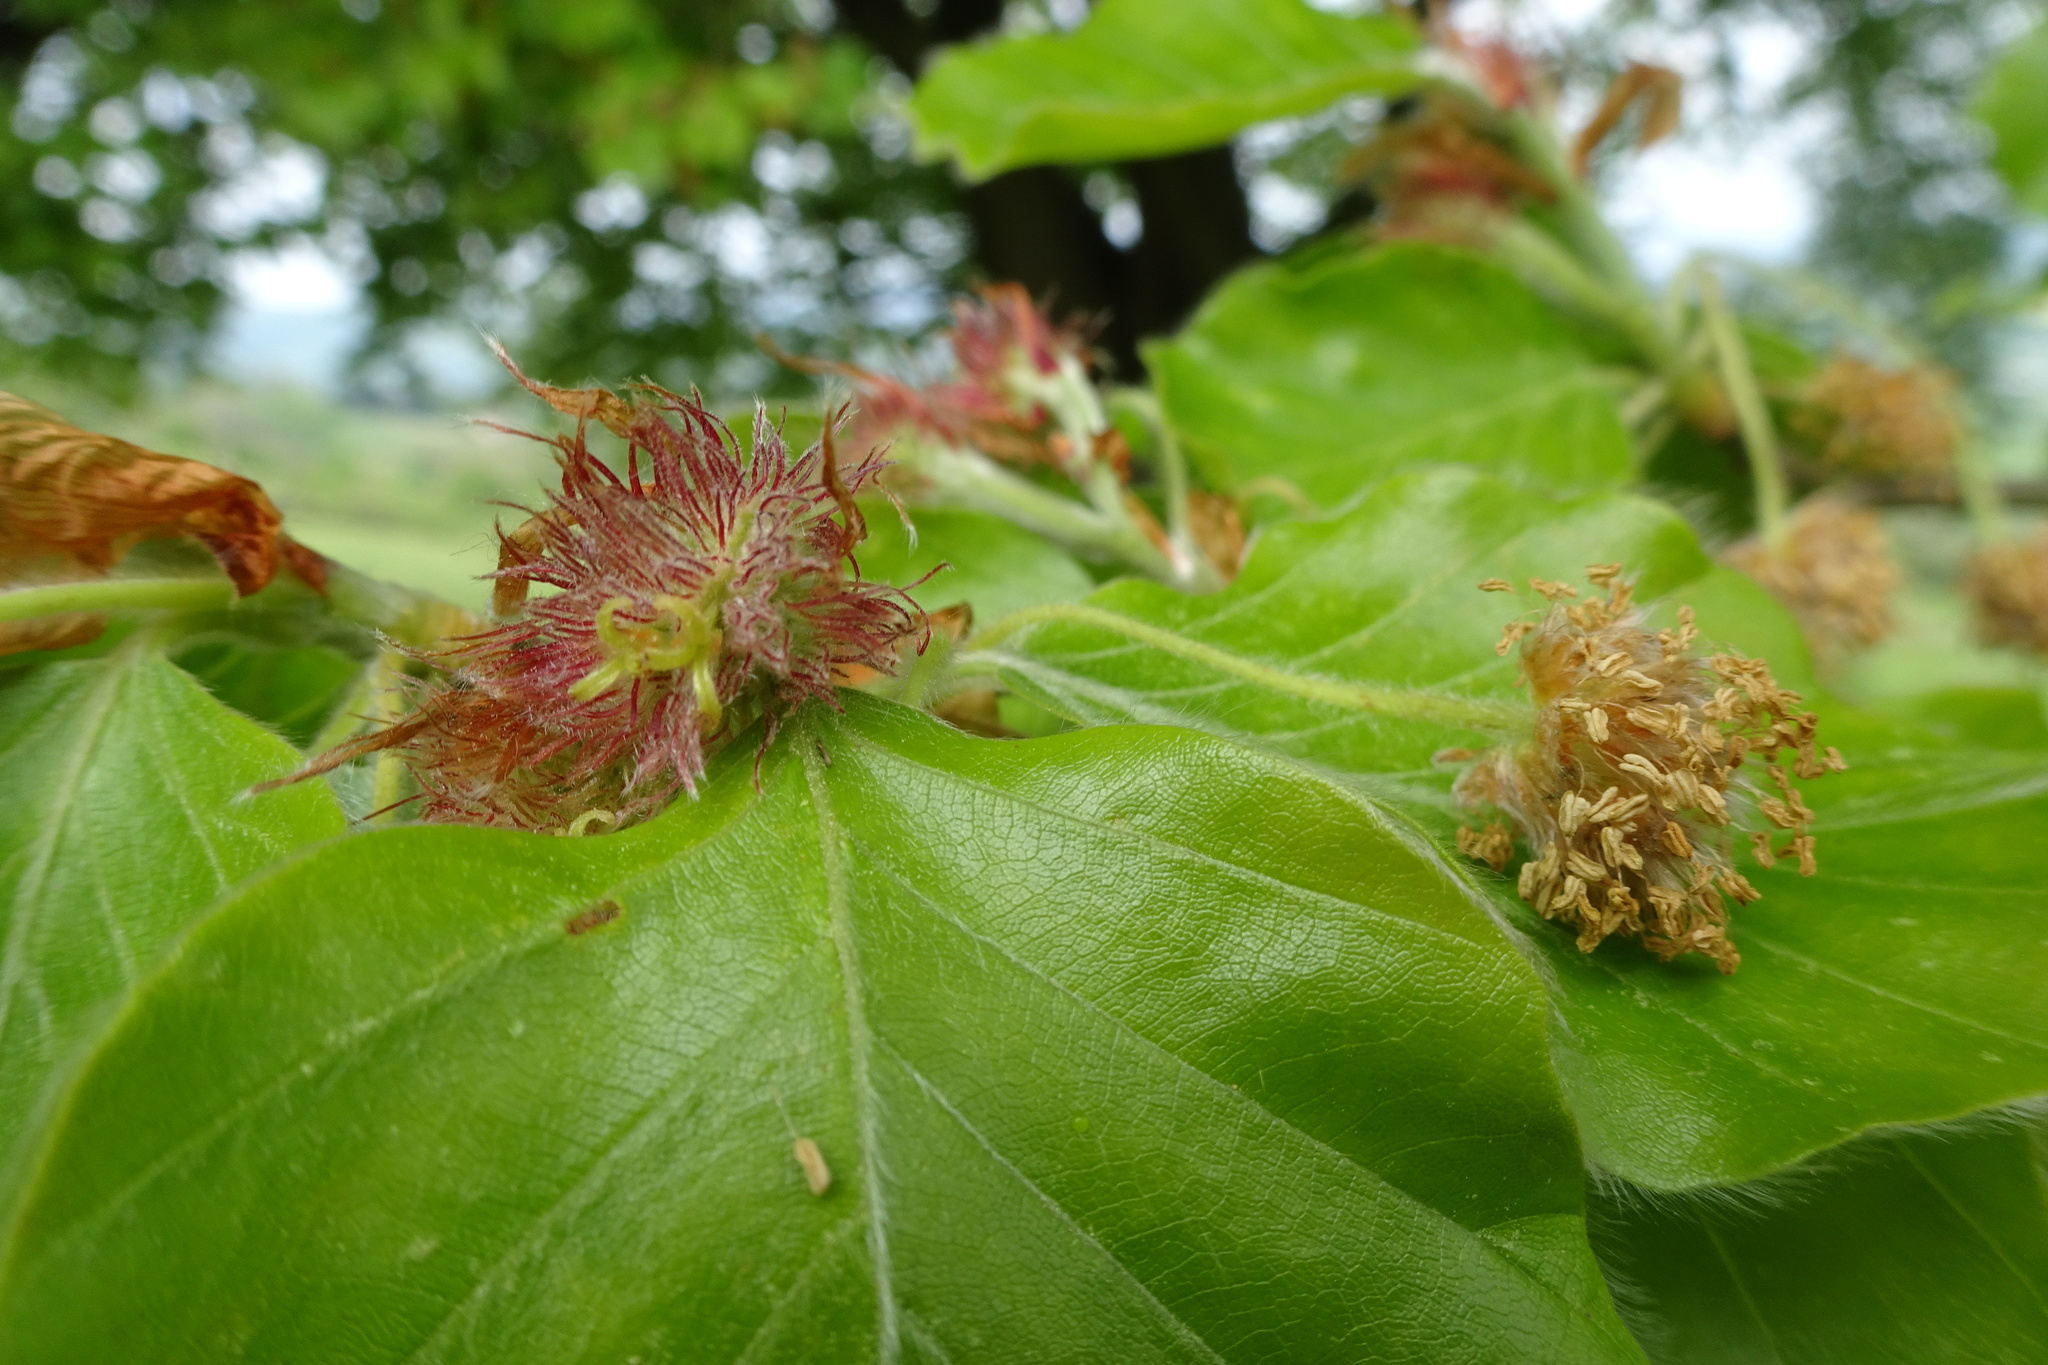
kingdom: Plantae
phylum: Tracheophyta
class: Magnoliopsida
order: Fagales
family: Fagaceae
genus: Fagus
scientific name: Fagus sylvatica
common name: Beech
